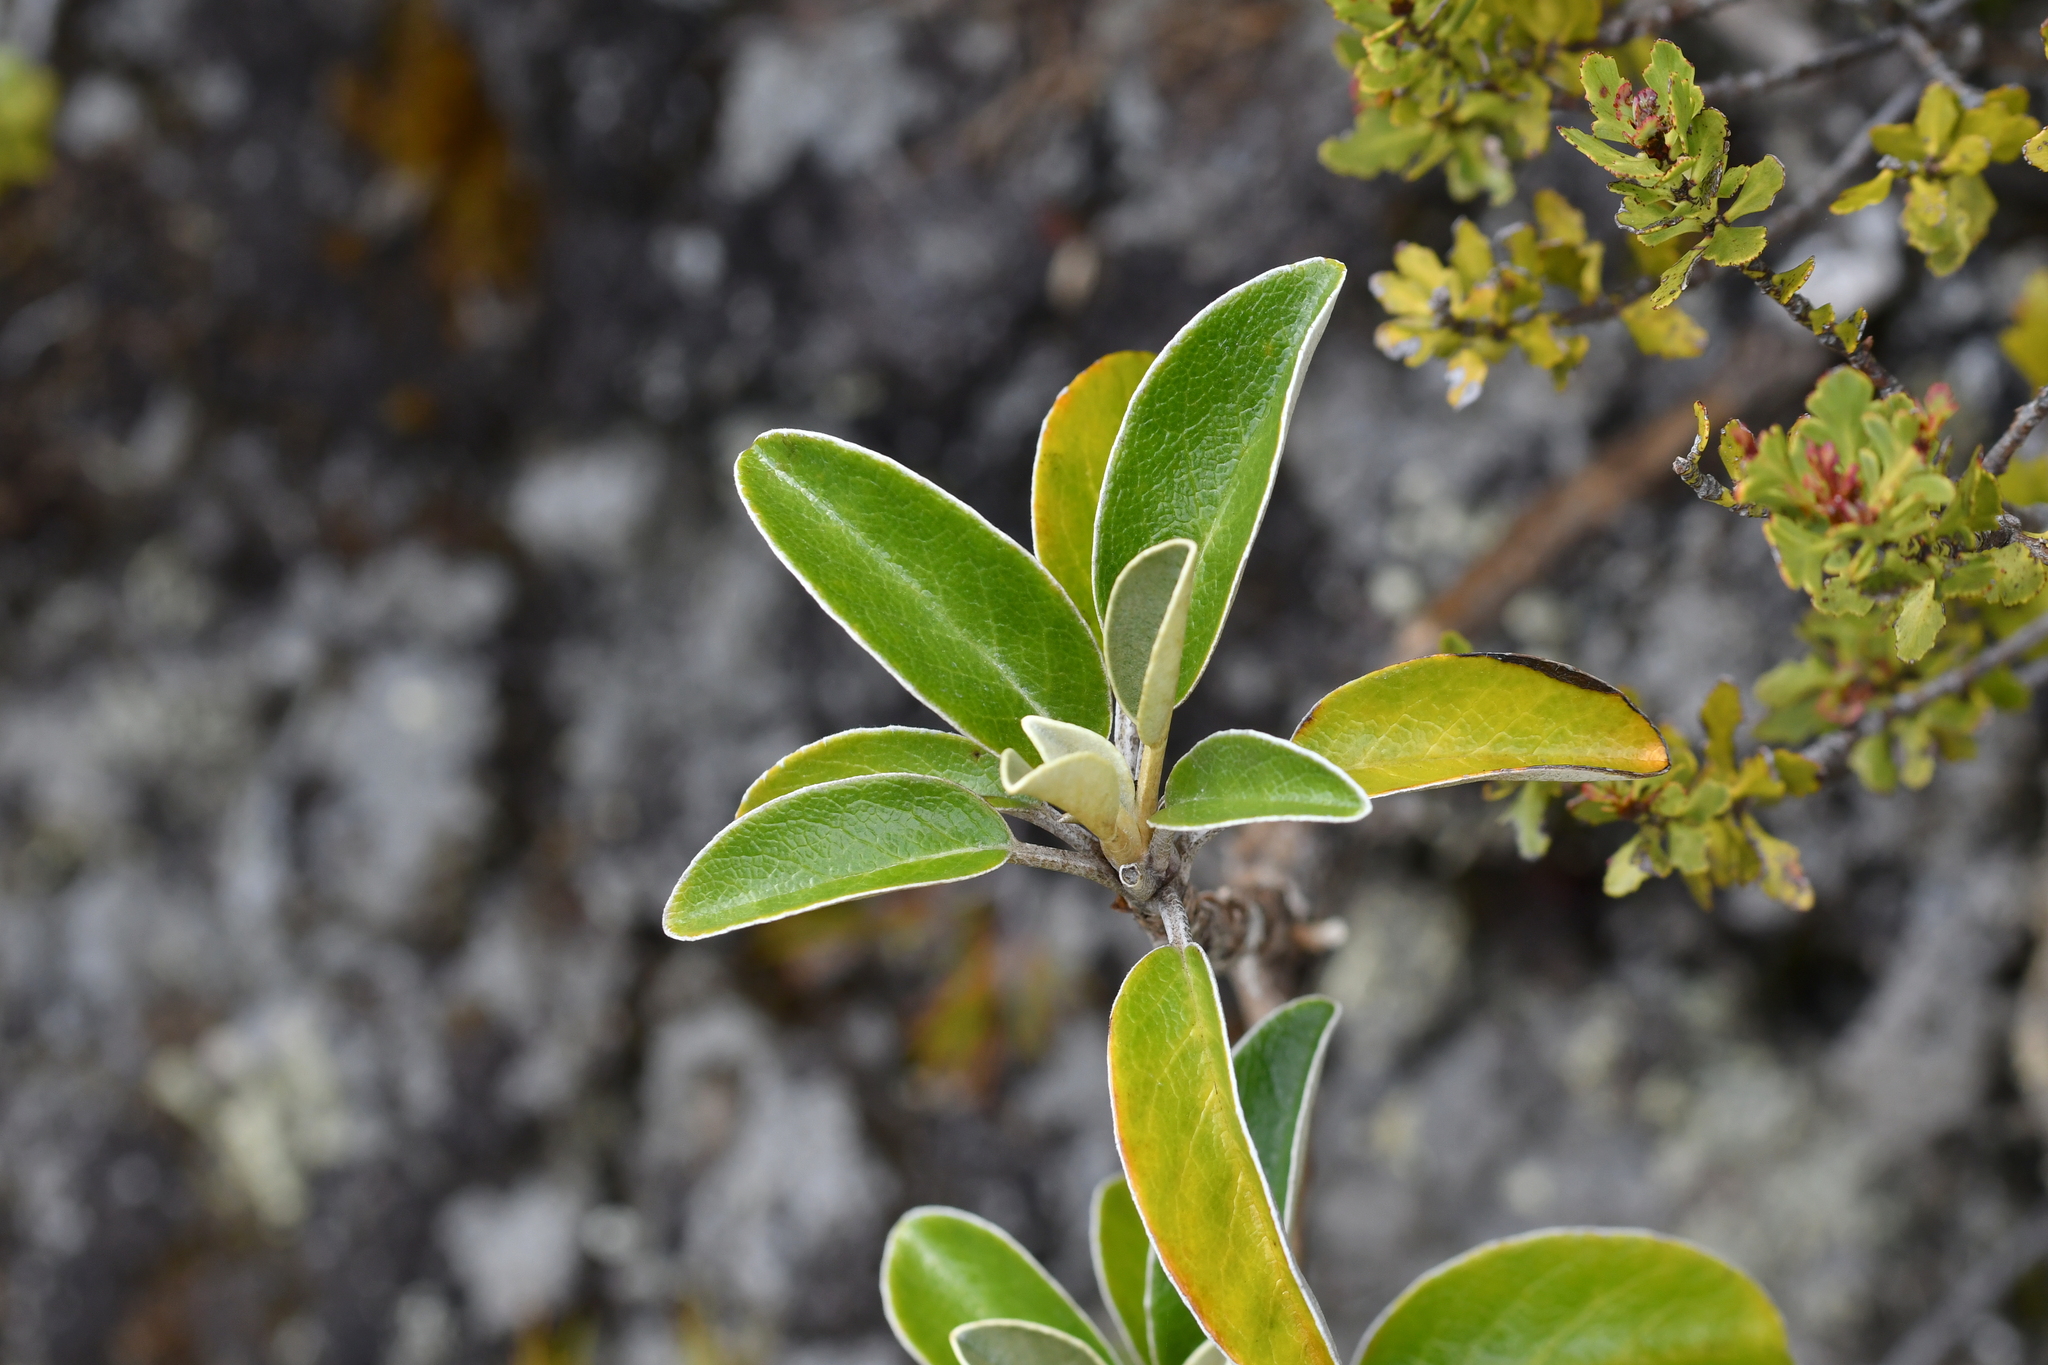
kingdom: Plantae
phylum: Tracheophyta
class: Magnoliopsida
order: Asterales
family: Asteraceae
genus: Brachyglottis
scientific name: Brachyglottis buchananii
